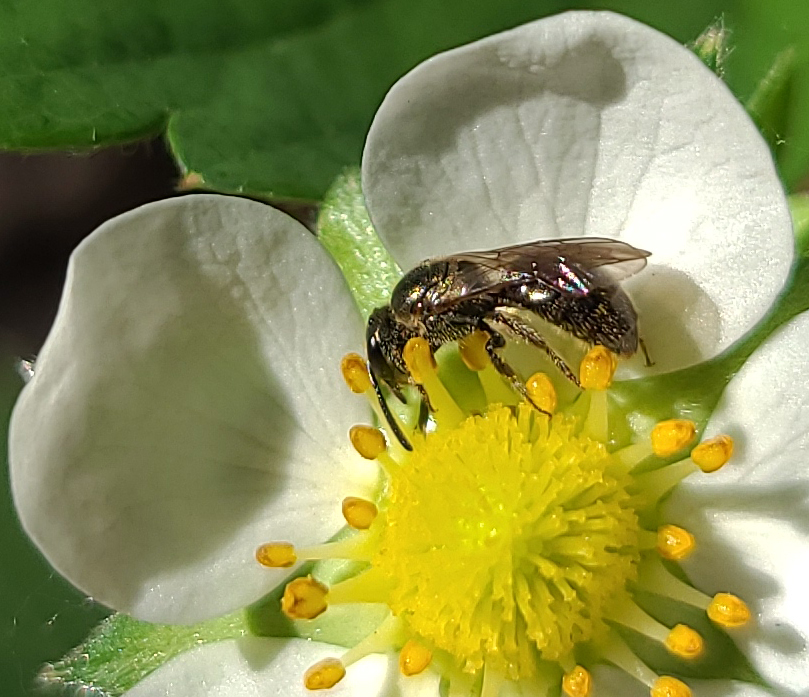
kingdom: Animalia
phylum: Arthropoda
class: Insecta
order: Hymenoptera
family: Halictidae
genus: Dialictus
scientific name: Dialictus
